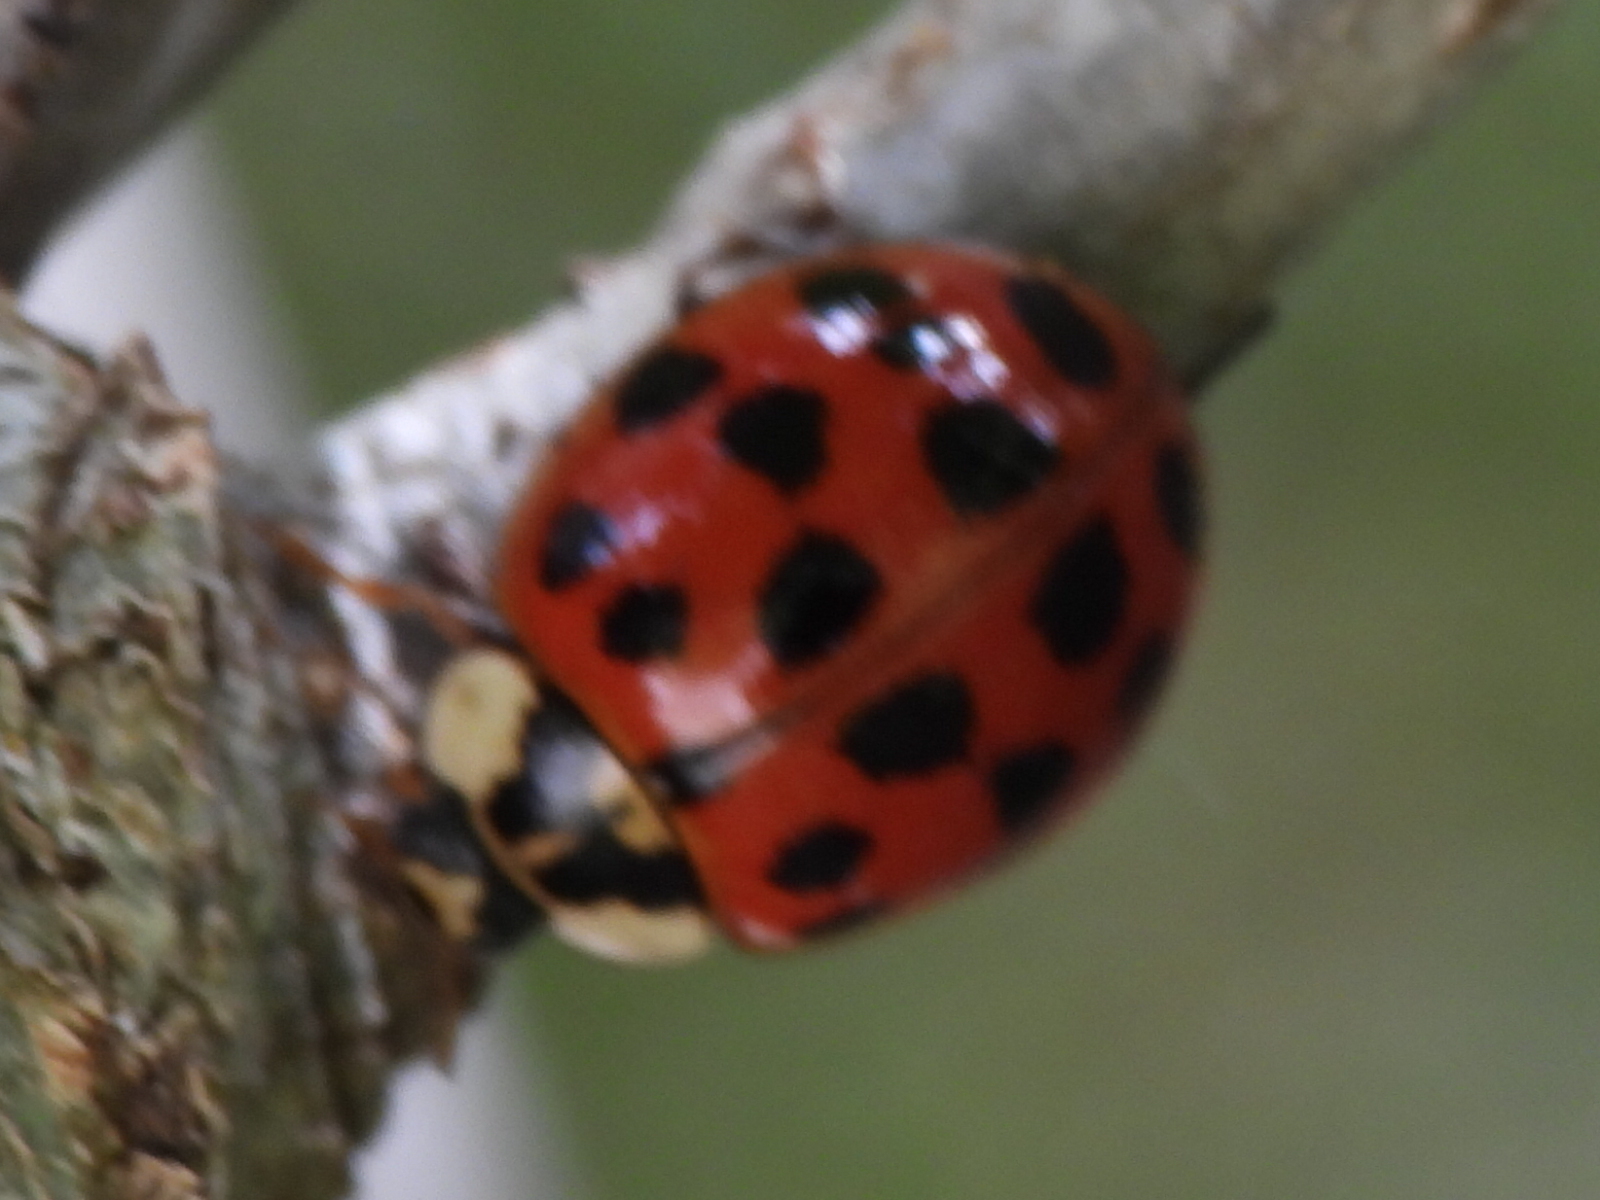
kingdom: Animalia
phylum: Arthropoda
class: Insecta
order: Coleoptera
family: Coccinellidae
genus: Harmonia
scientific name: Harmonia axyridis
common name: Harlequin ladybird
